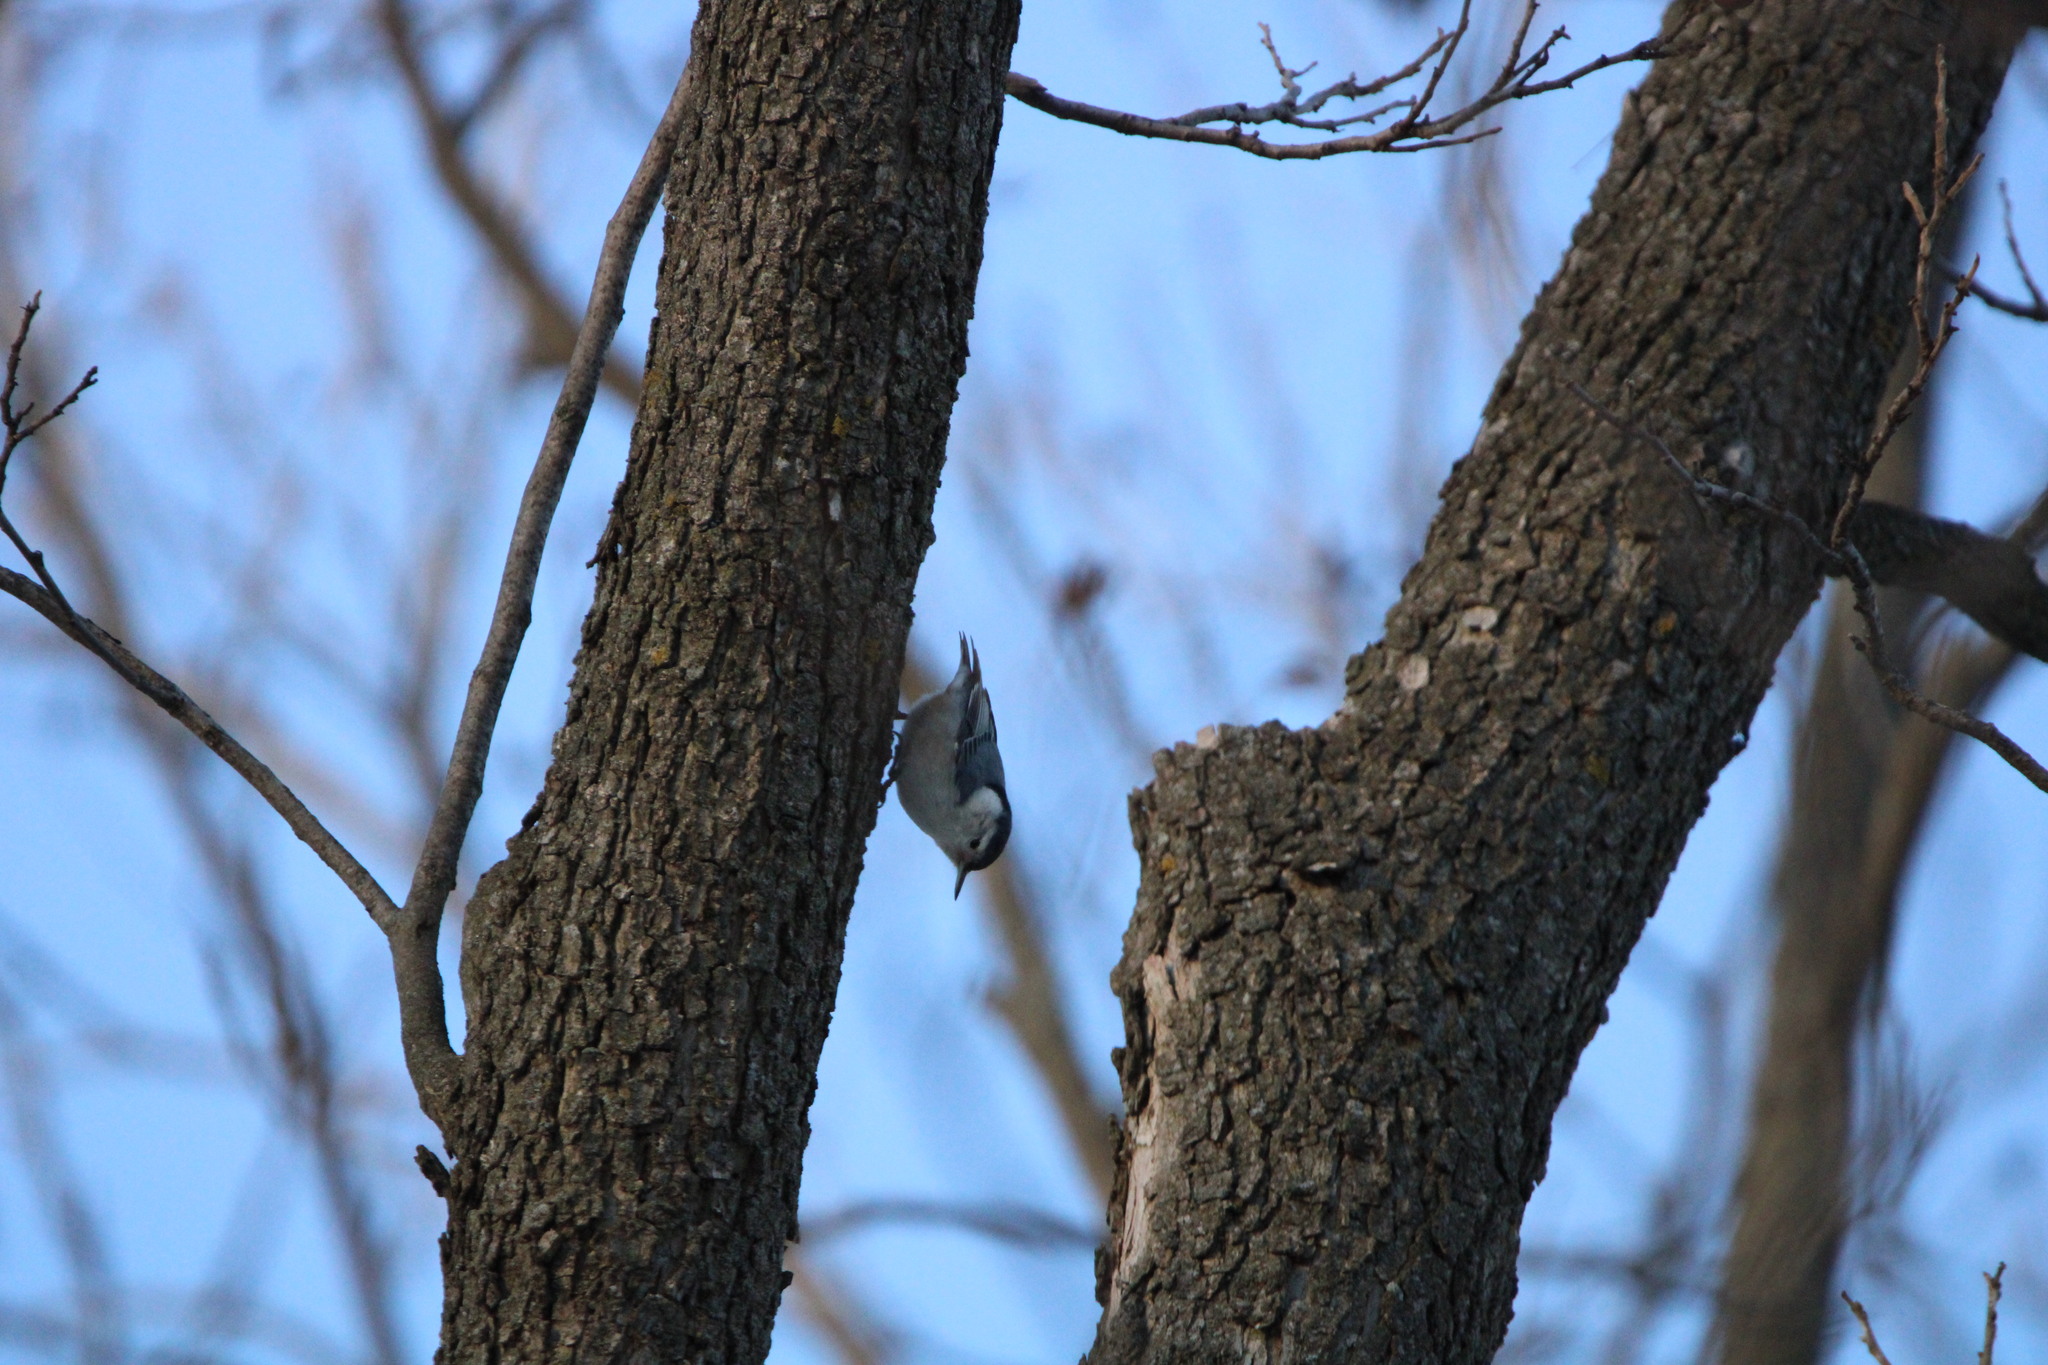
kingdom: Animalia
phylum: Chordata
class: Aves
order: Passeriformes
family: Sittidae
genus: Sitta
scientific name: Sitta carolinensis
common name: White-breasted nuthatch
